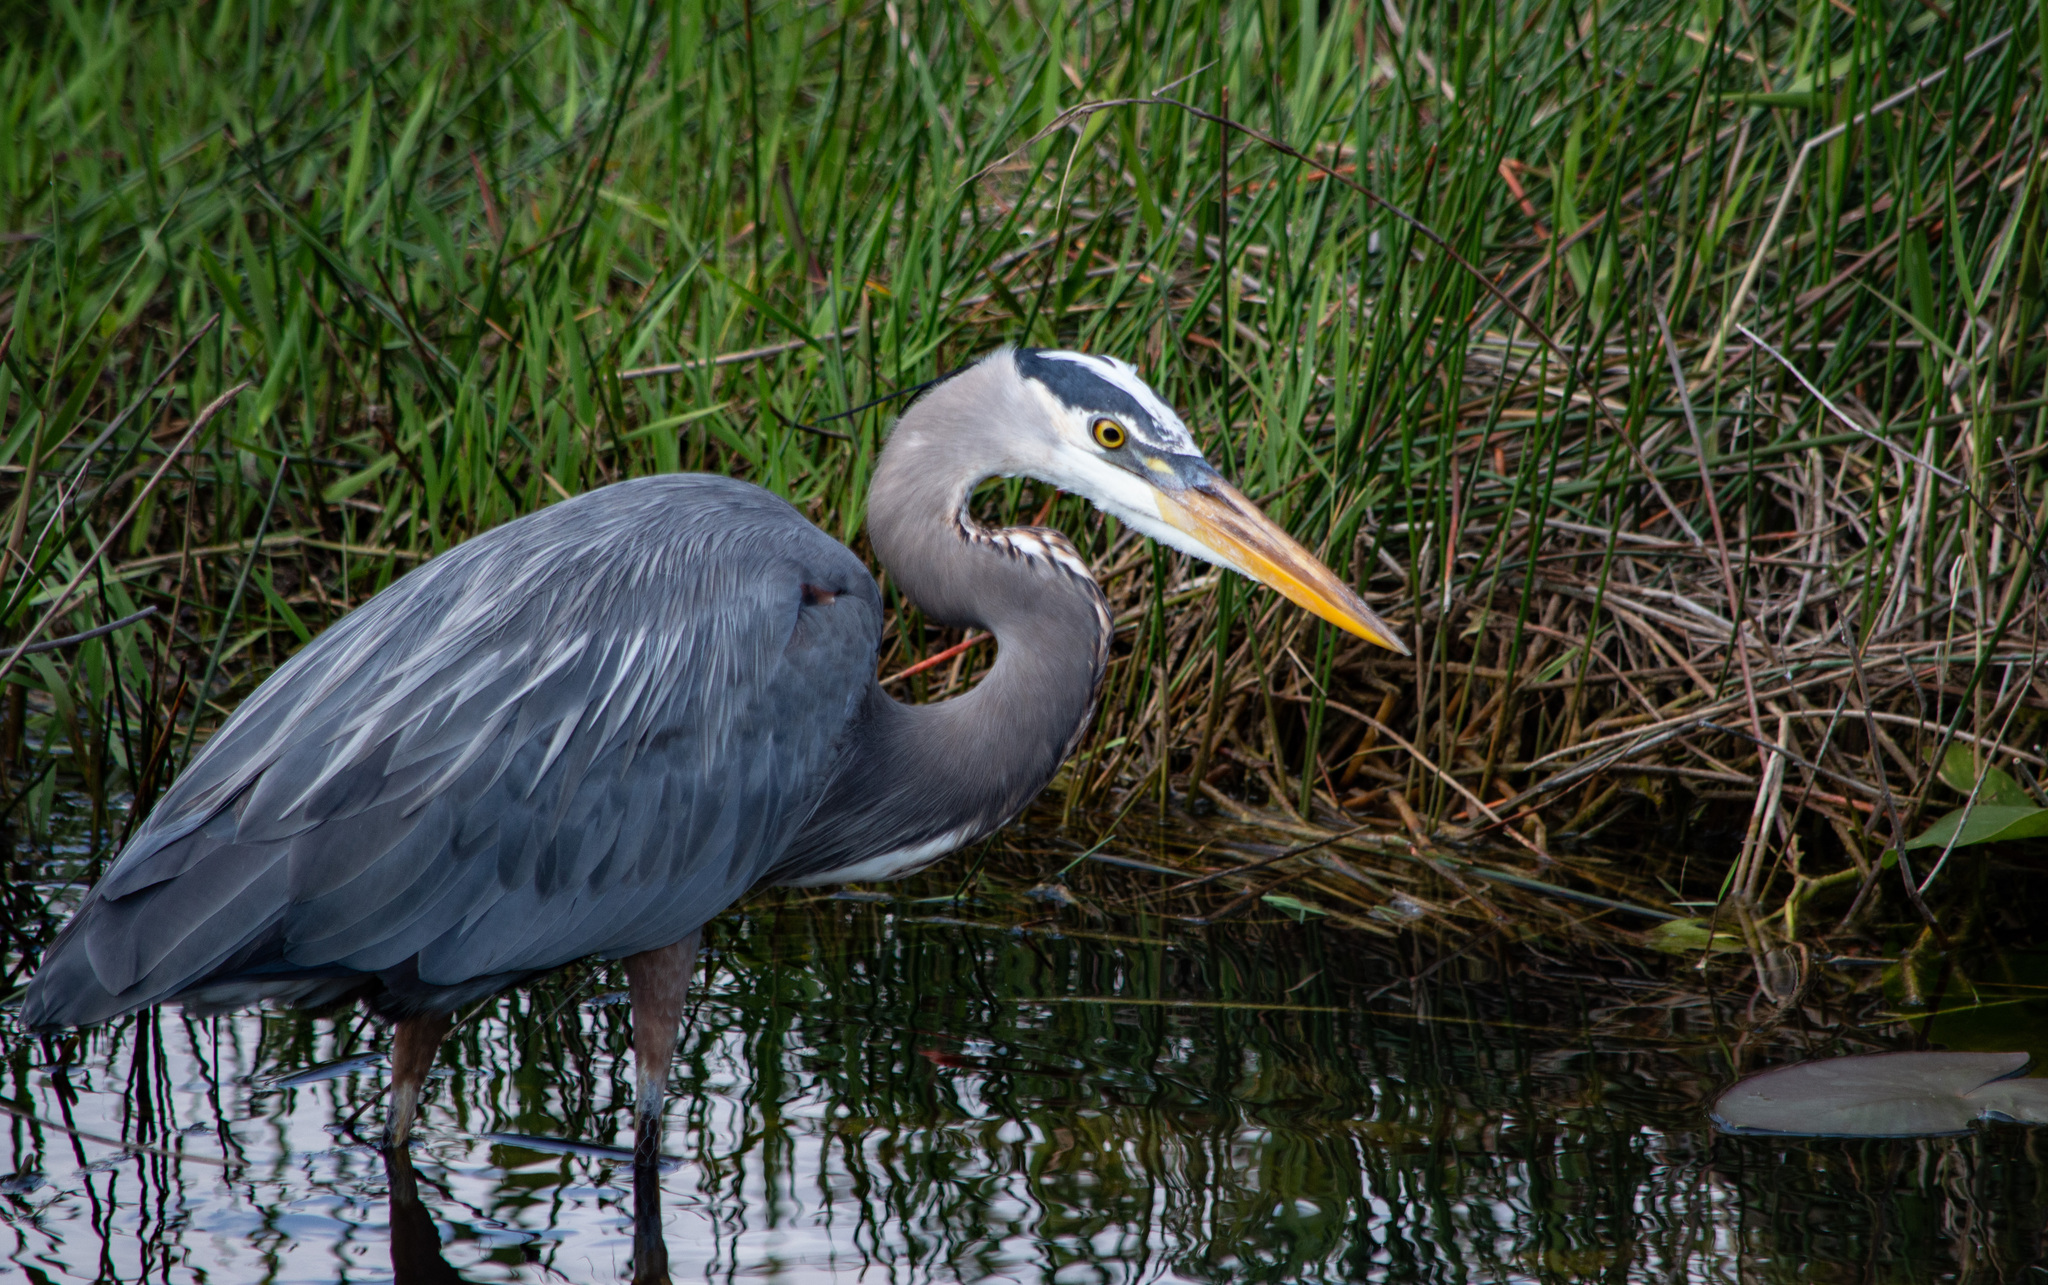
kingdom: Animalia
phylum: Chordata
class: Aves
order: Pelecaniformes
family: Ardeidae
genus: Ardea
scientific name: Ardea herodias
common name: Great blue heron
